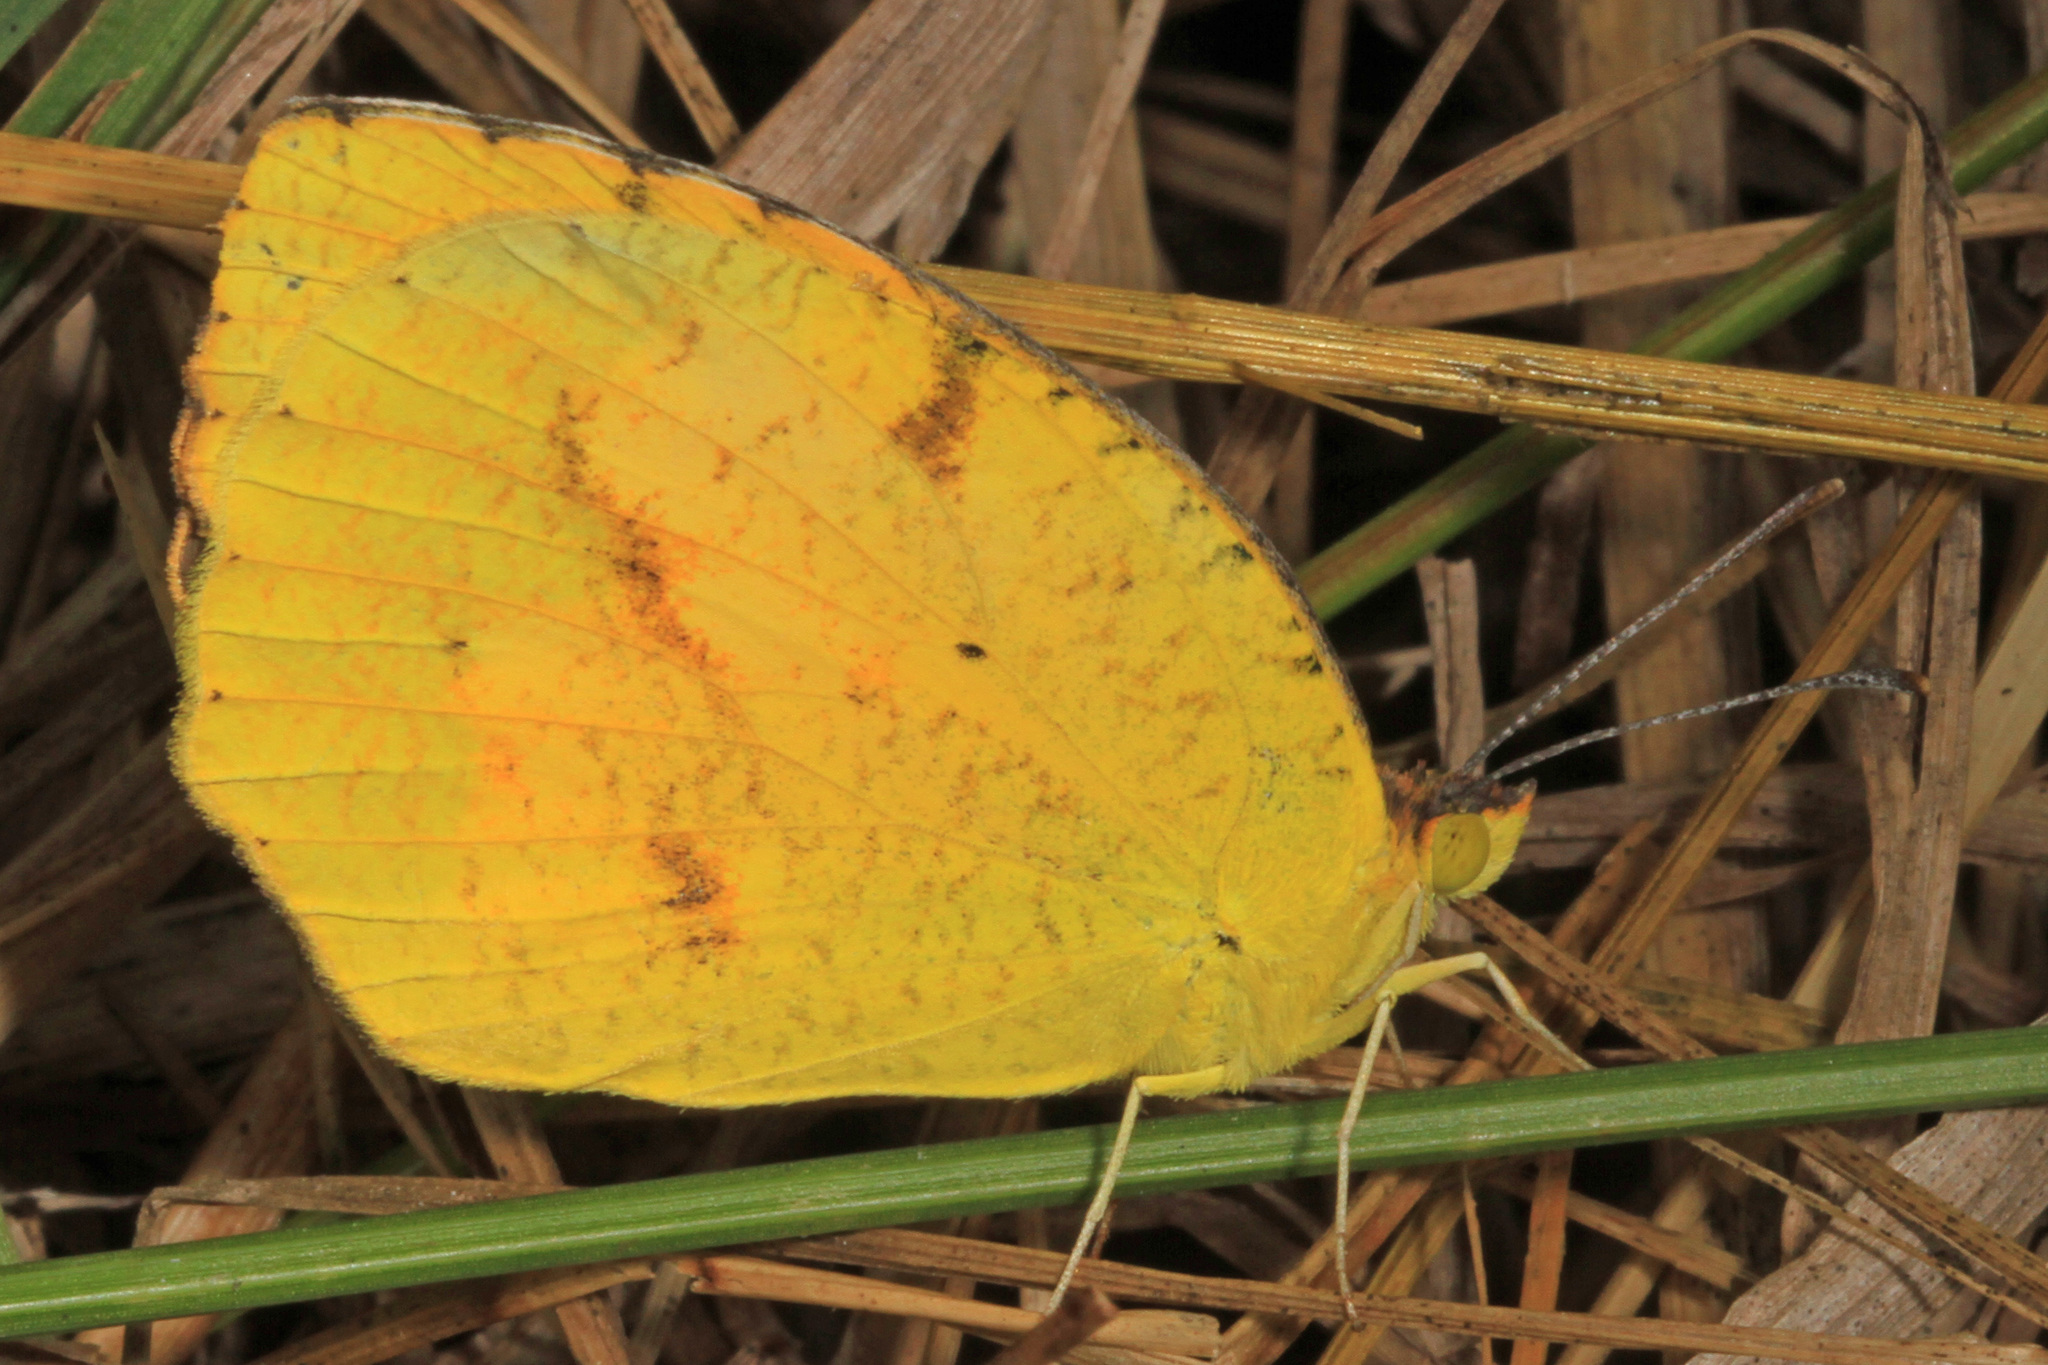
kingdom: Animalia
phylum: Arthropoda
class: Insecta
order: Lepidoptera
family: Pieridae
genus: Abaeis
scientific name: Abaeis nicippe
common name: Sleepy orange
